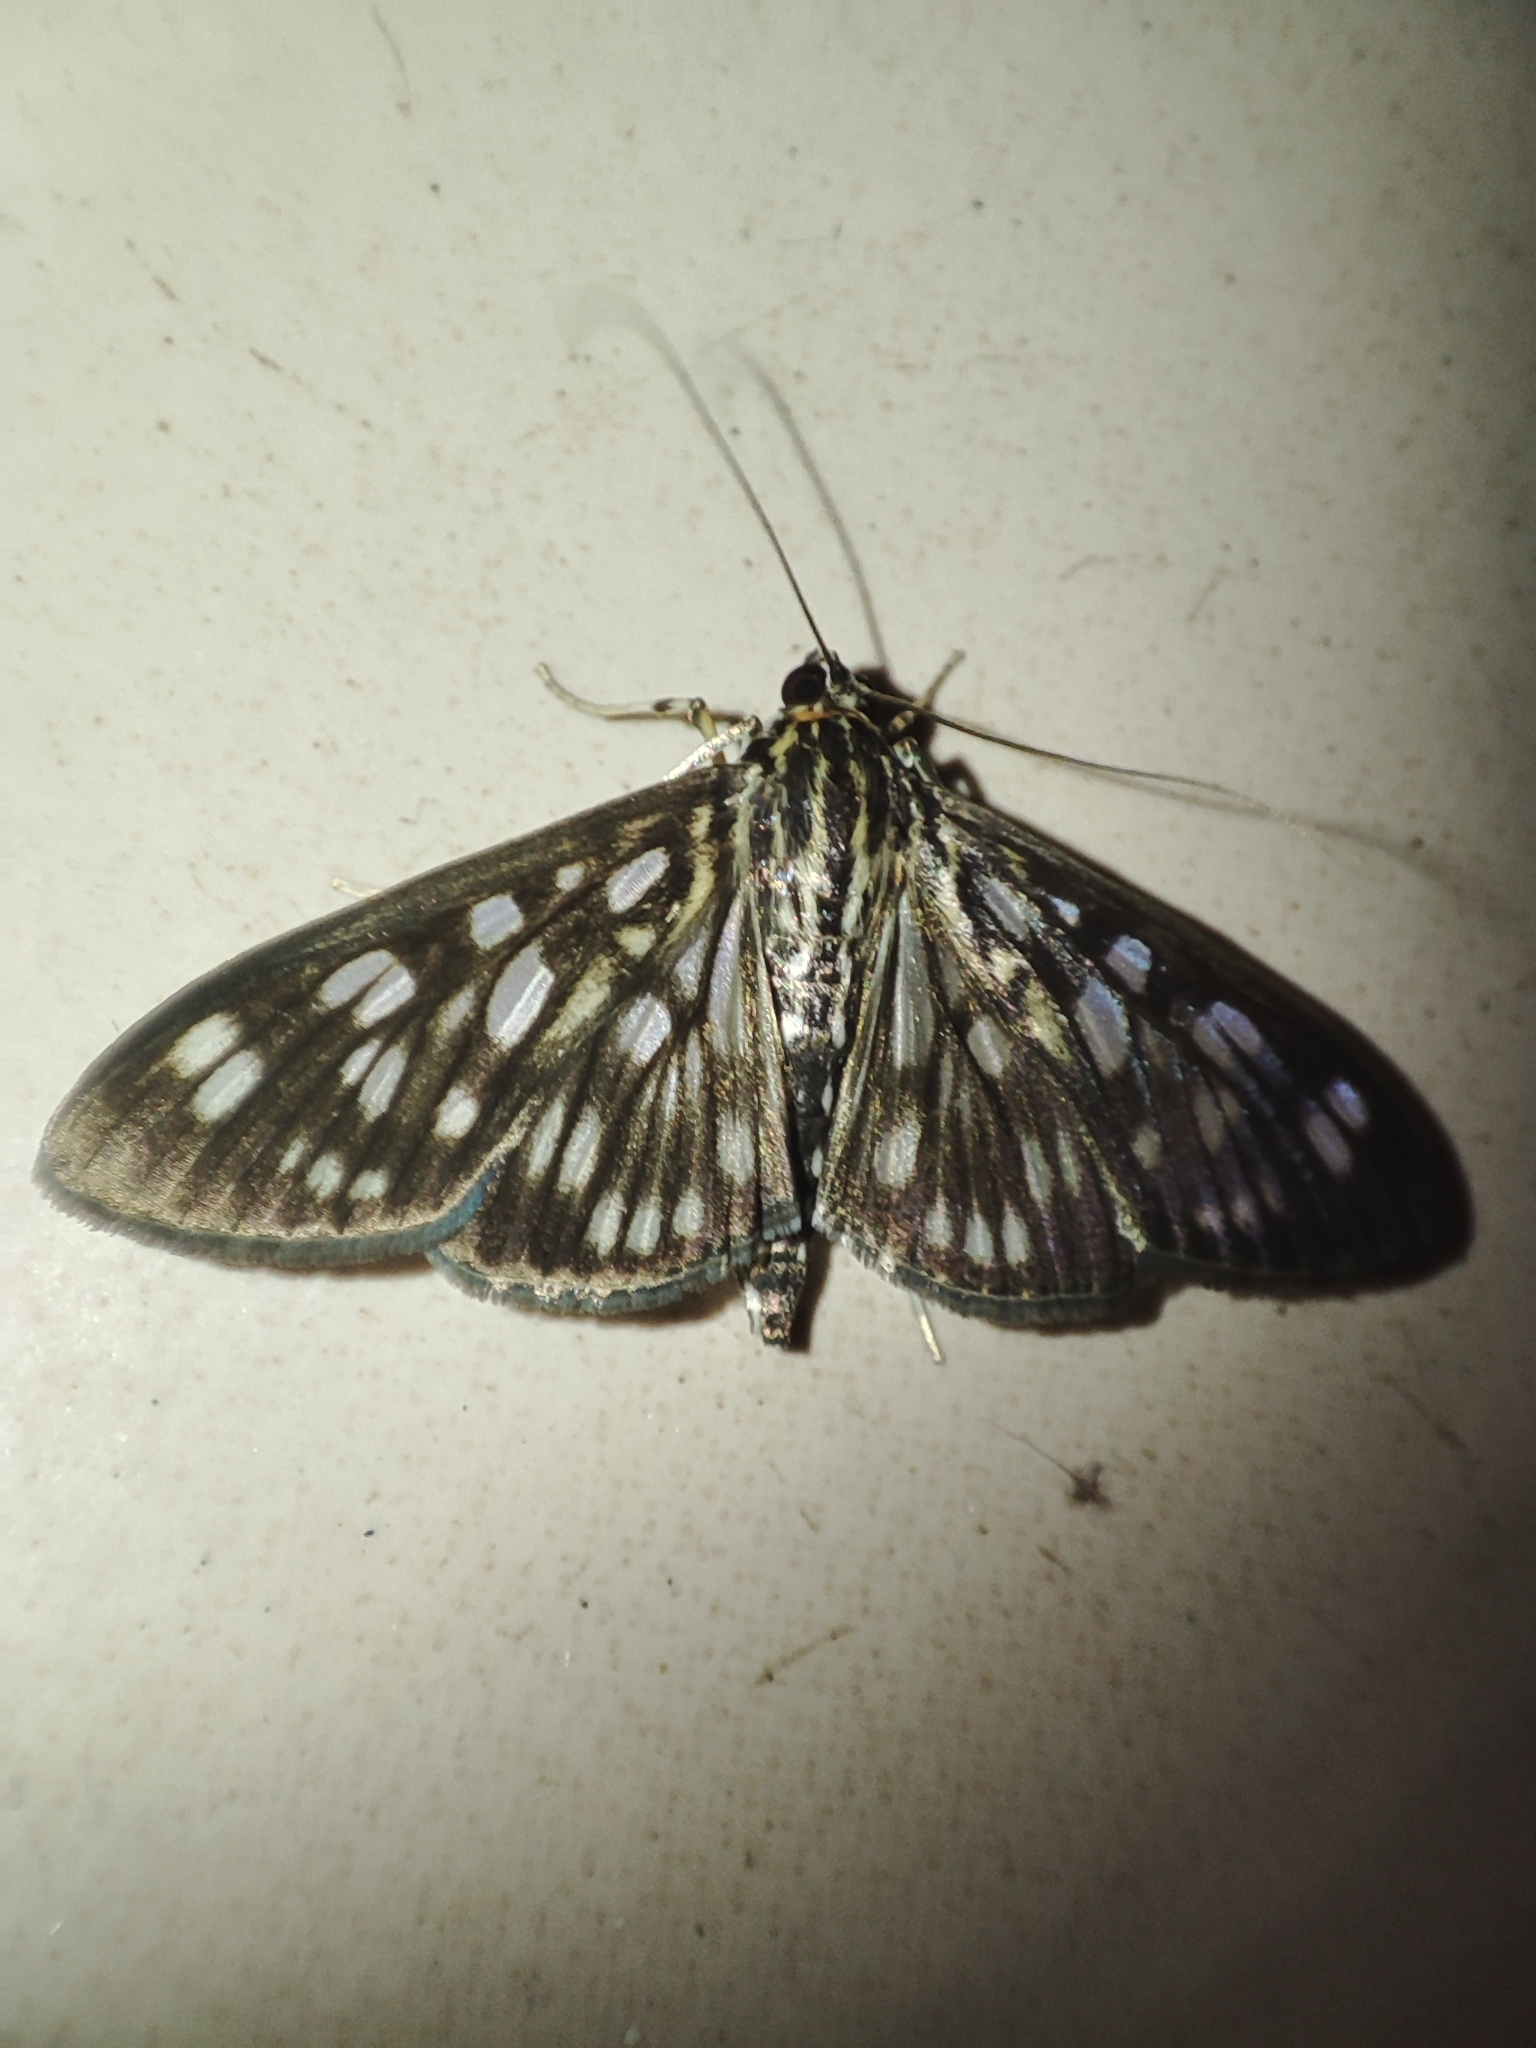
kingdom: Animalia
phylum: Arthropoda
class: Insecta
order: Lepidoptera
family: Crambidae
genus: Pygospila
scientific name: Pygospila tyres
